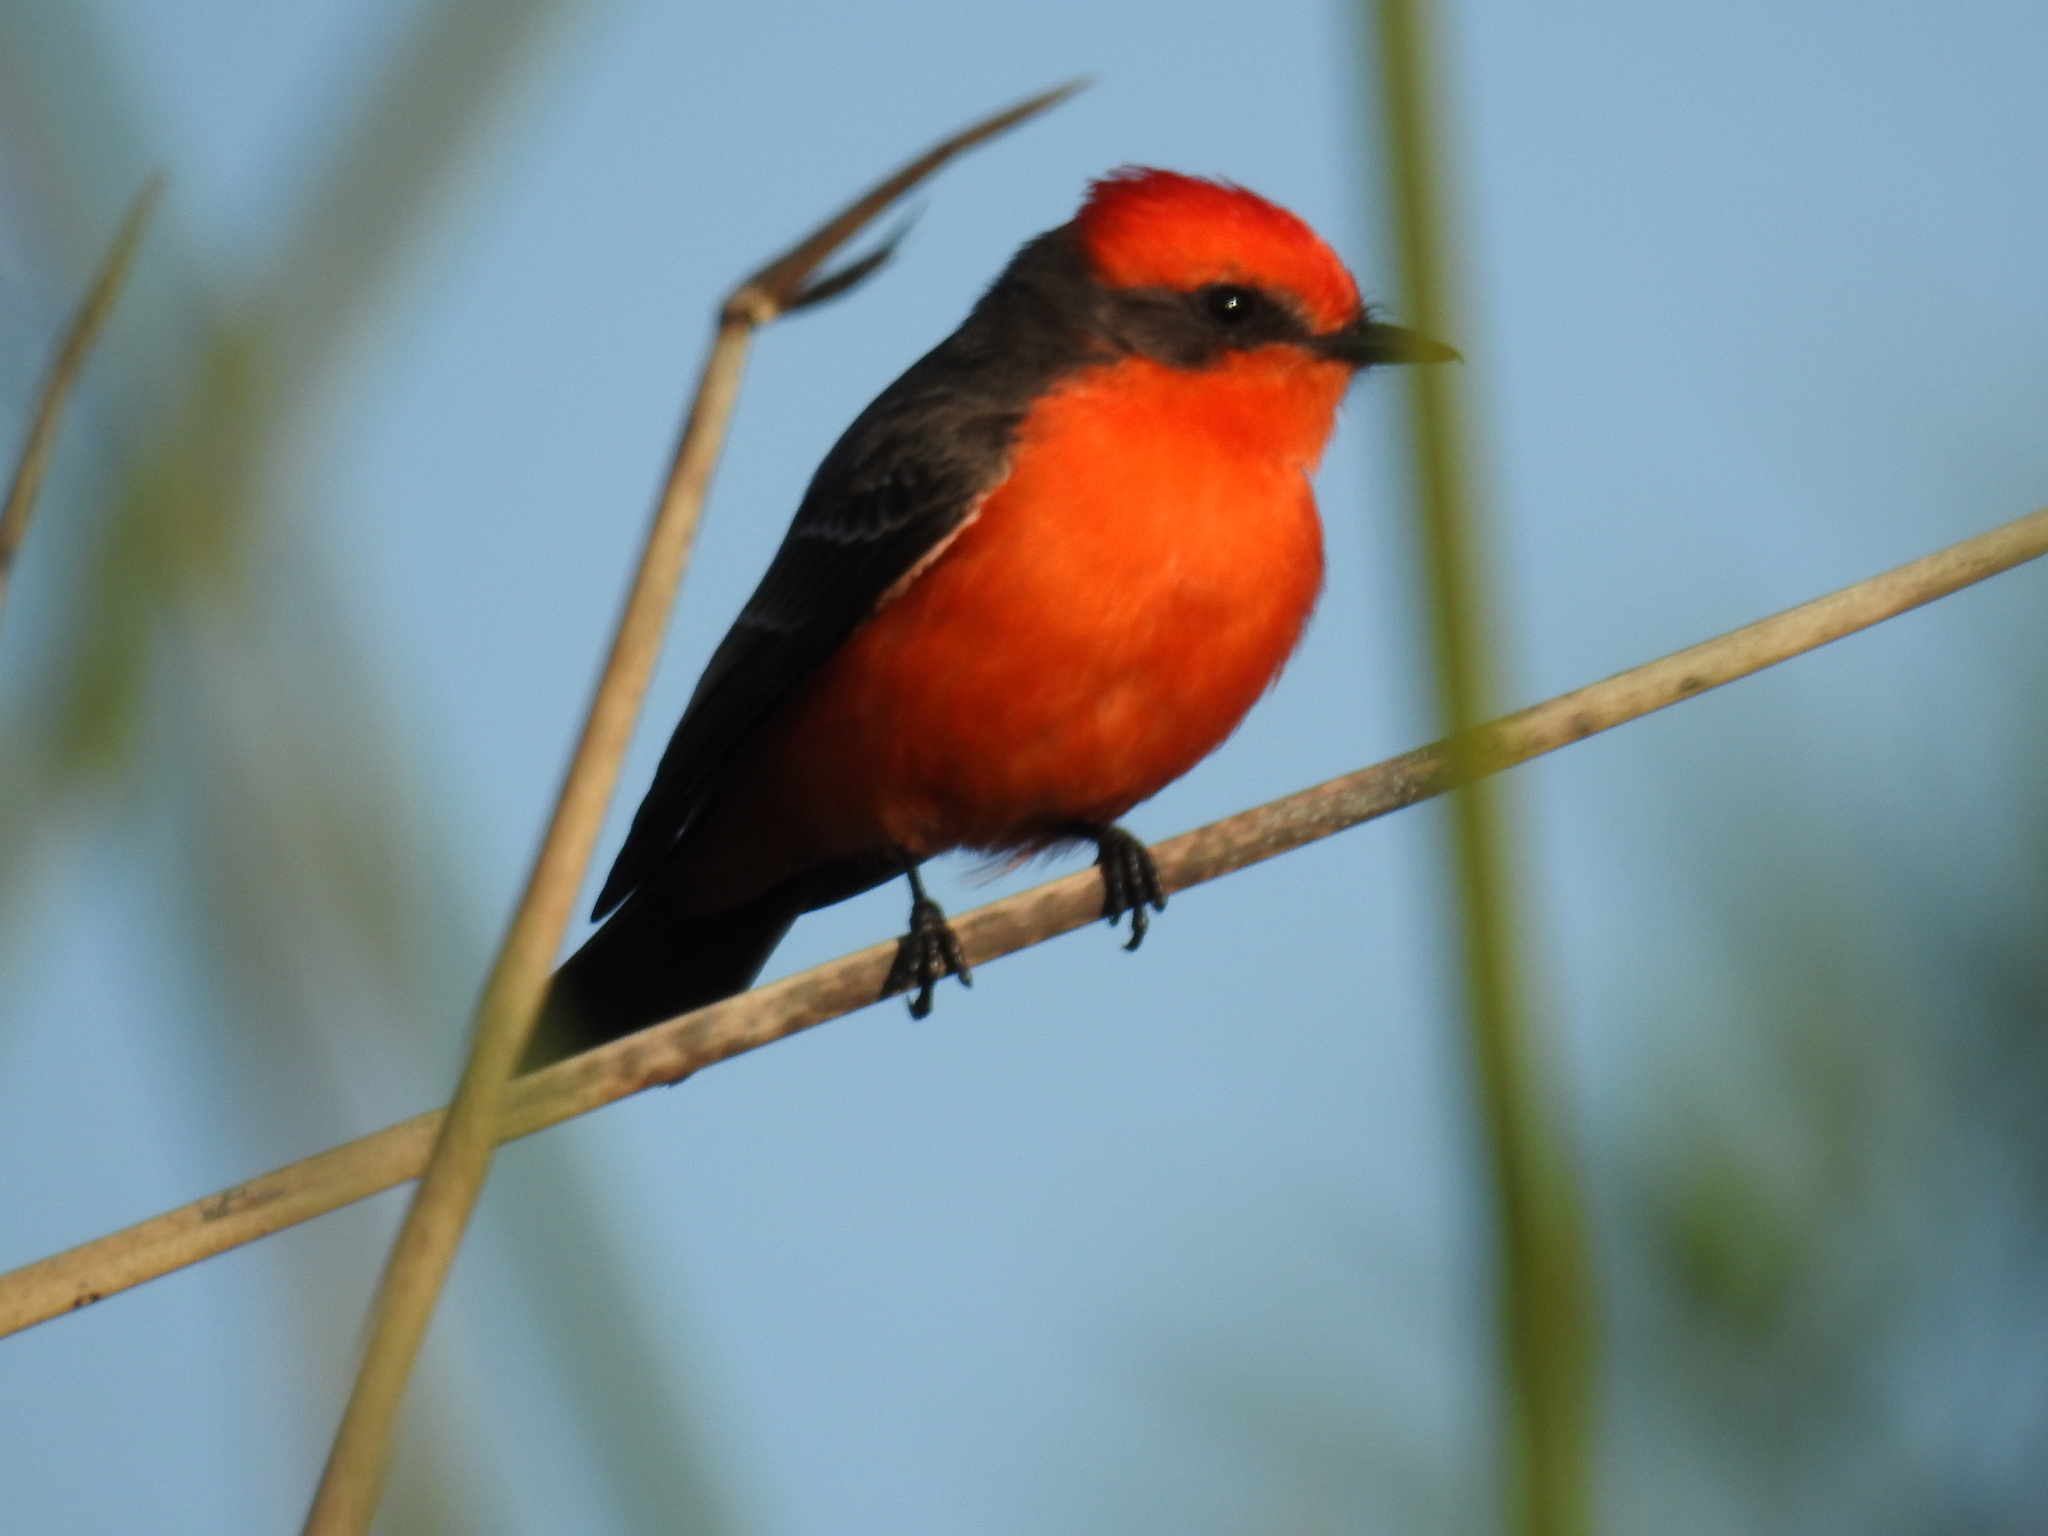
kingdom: Animalia
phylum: Chordata
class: Aves
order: Passeriformes
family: Tyrannidae
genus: Pyrocephalus
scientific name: Pyrocephalus rubinus
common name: Vermilion flycatcher
